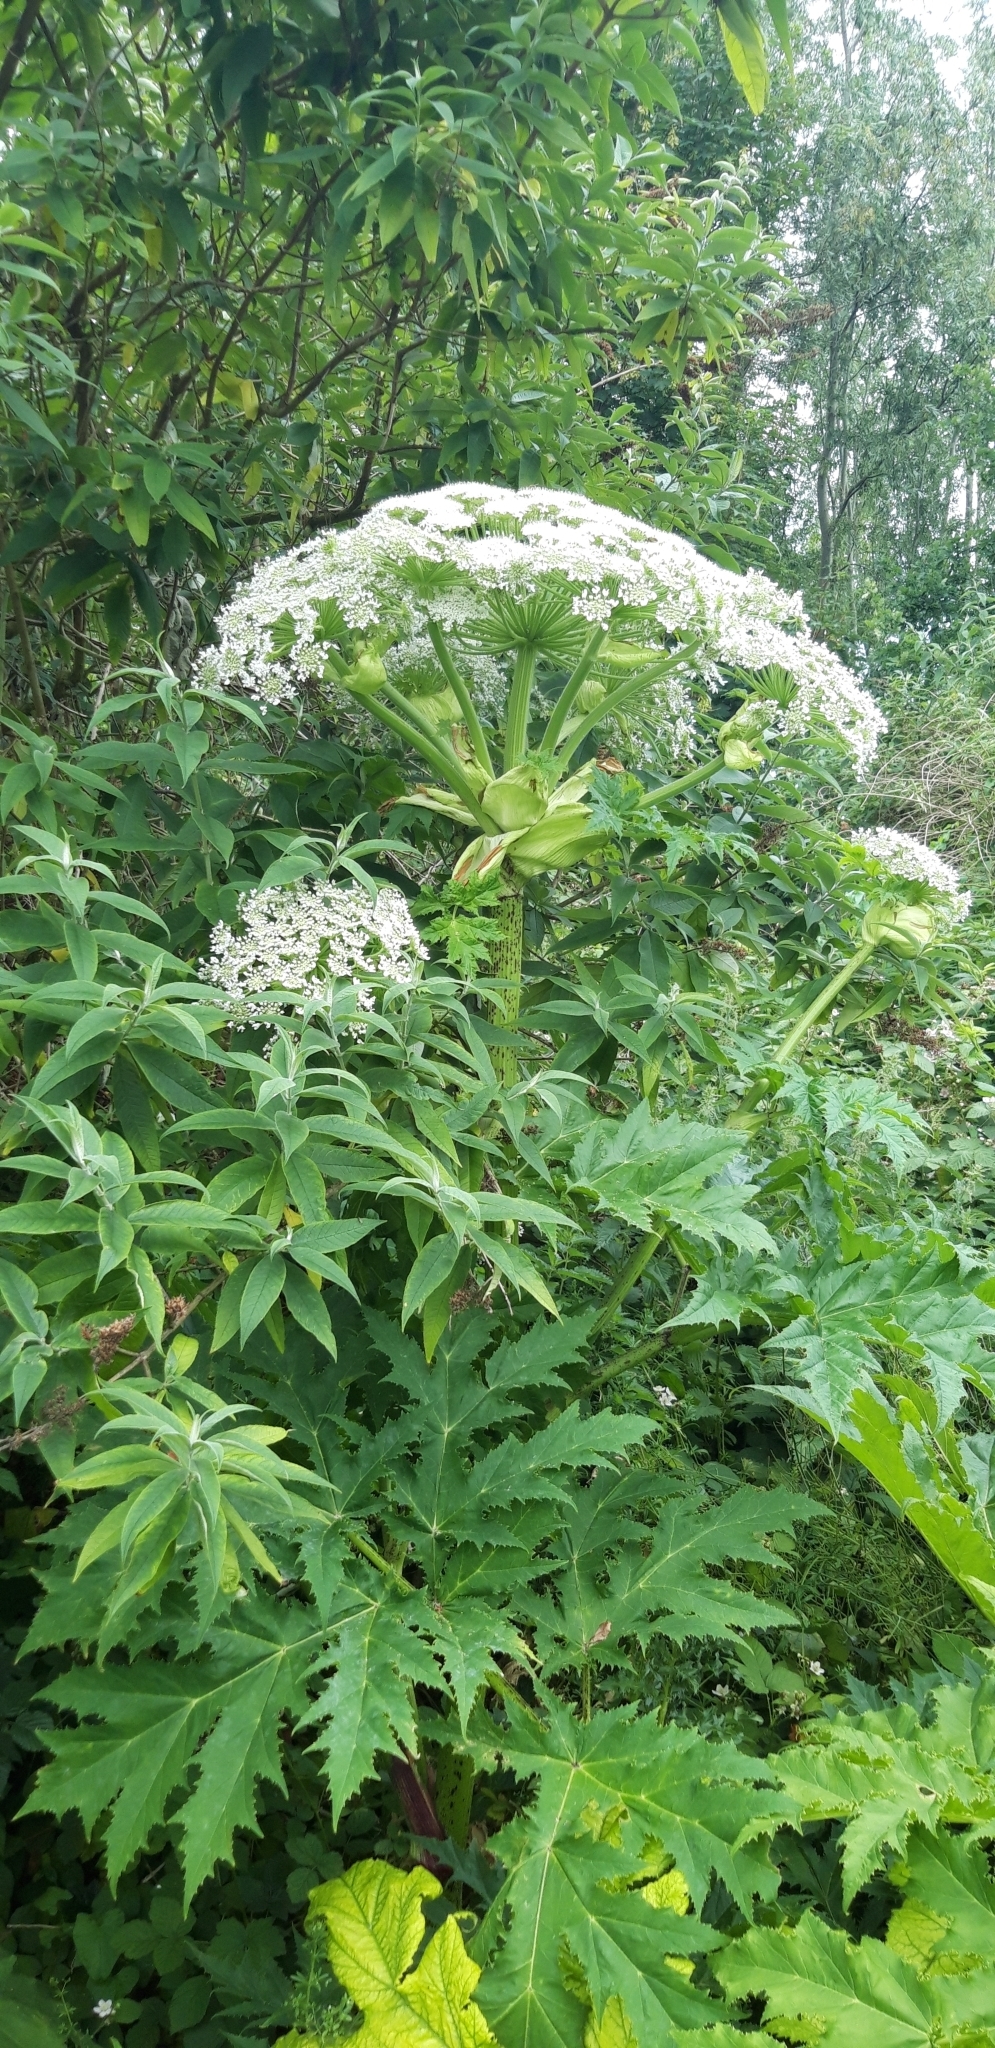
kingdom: Plantae
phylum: Tracheophyta
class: Magnoliopsida
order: Apiales
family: Apiaceae
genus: Heracleum
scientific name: Heracleum mantegazzianum
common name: Giant hogweed
